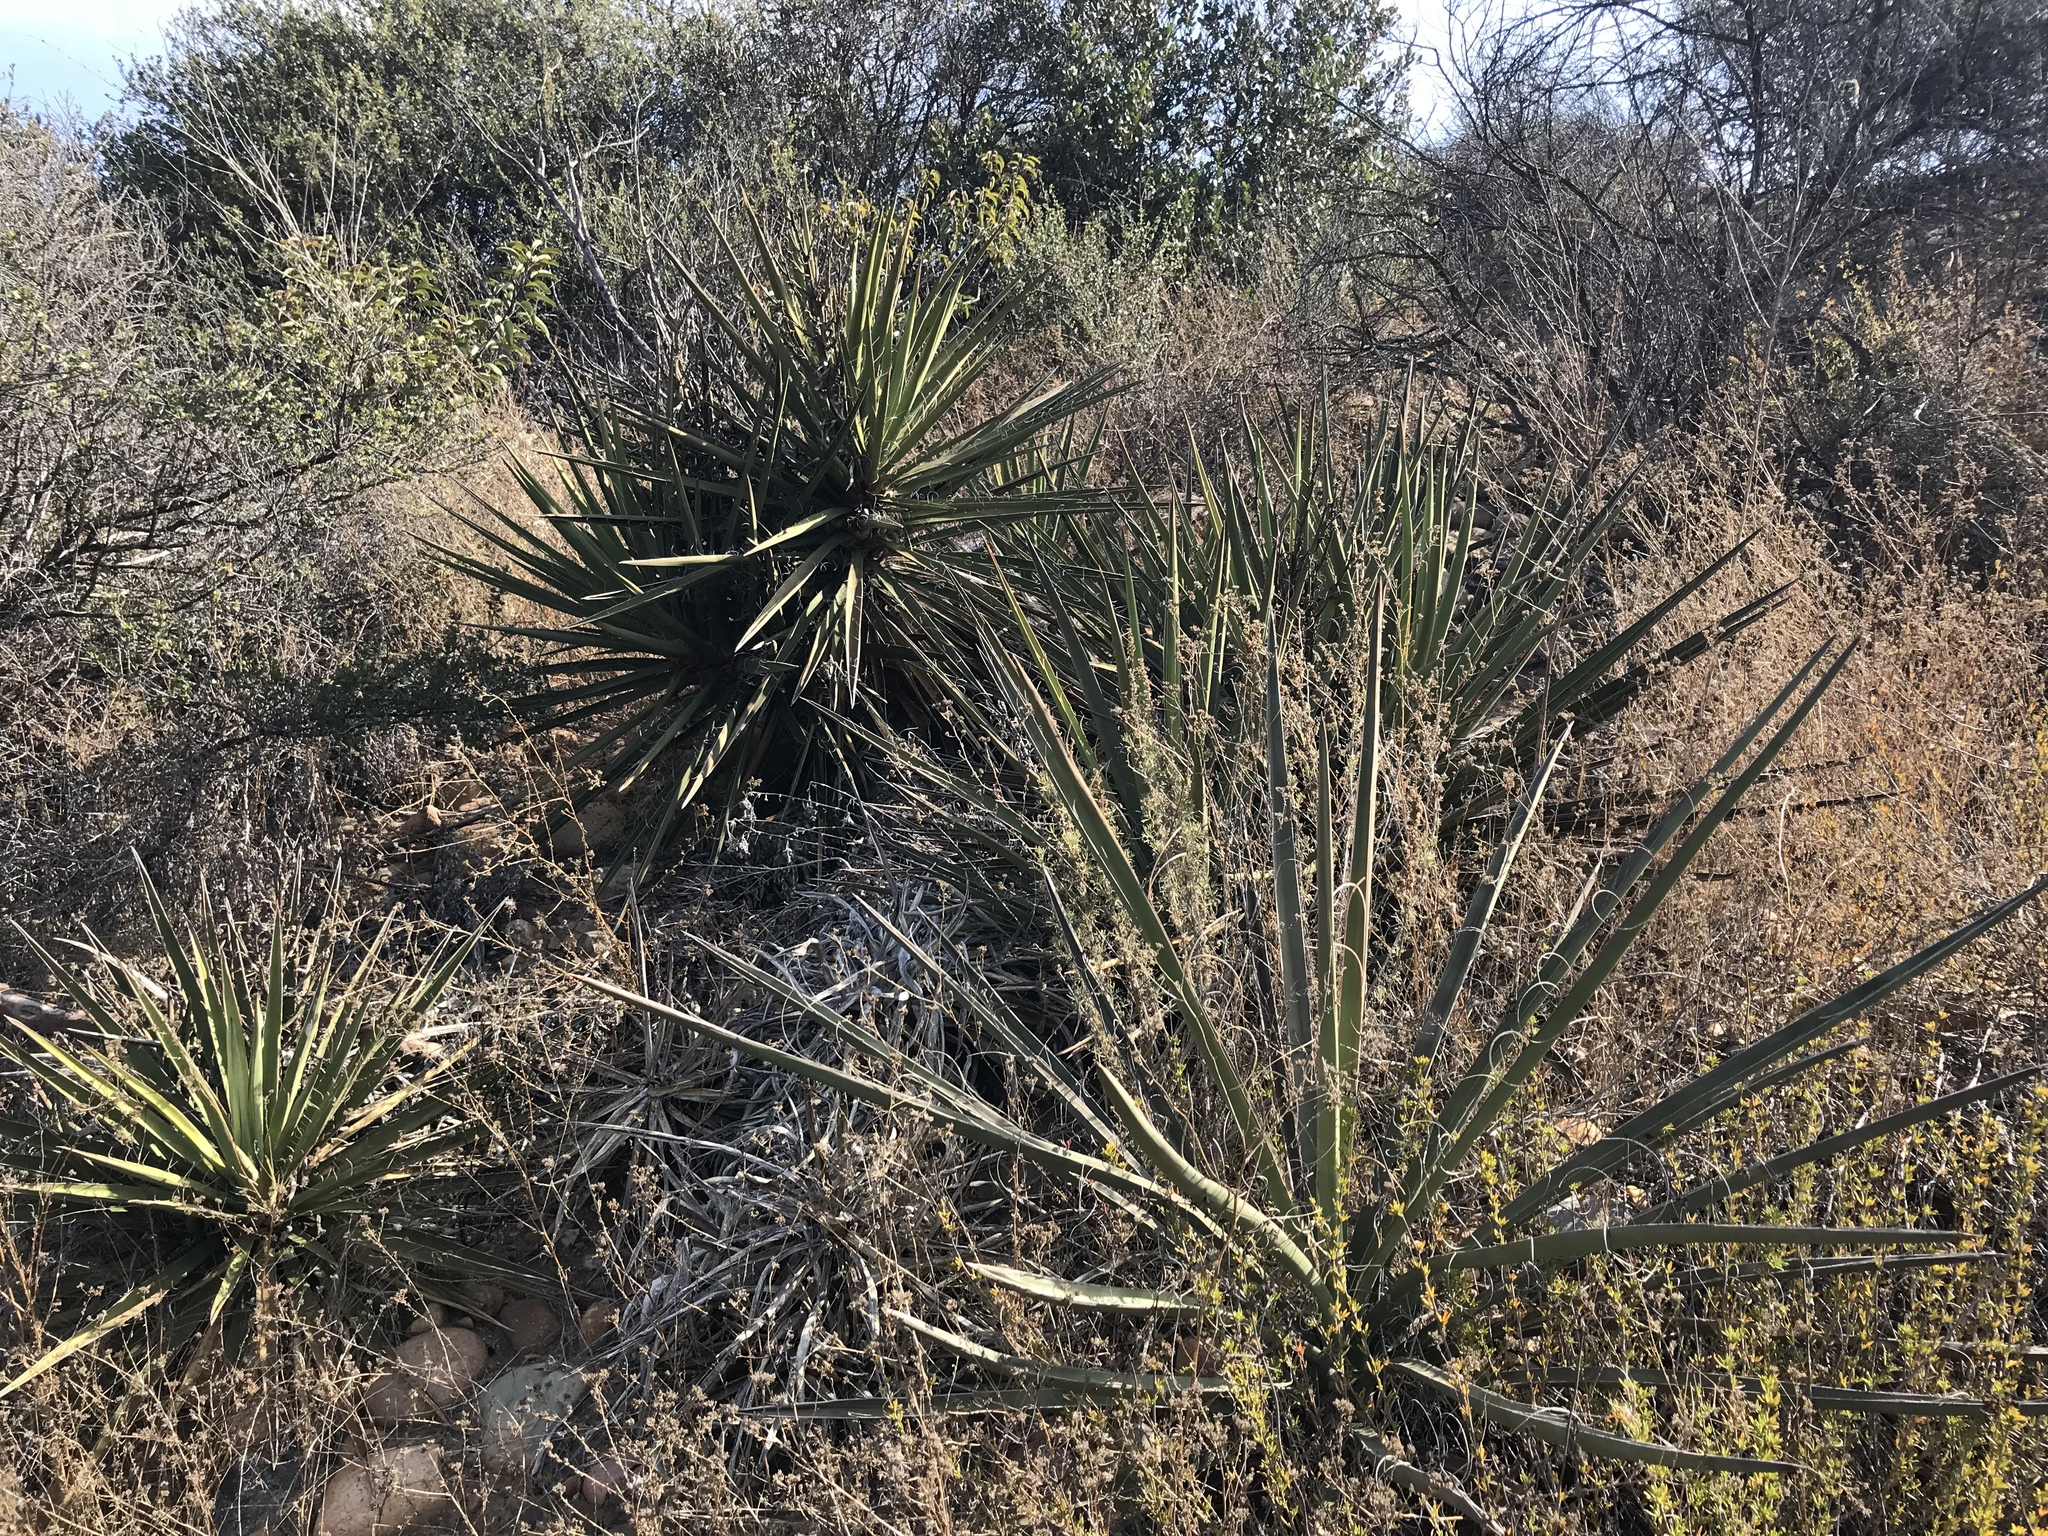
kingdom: Plantae
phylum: Tracheophyta
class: Liliopsida
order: Asparagales
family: Asparagaceae
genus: Yucca
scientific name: Yucca schidigera
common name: Mojave yucca
